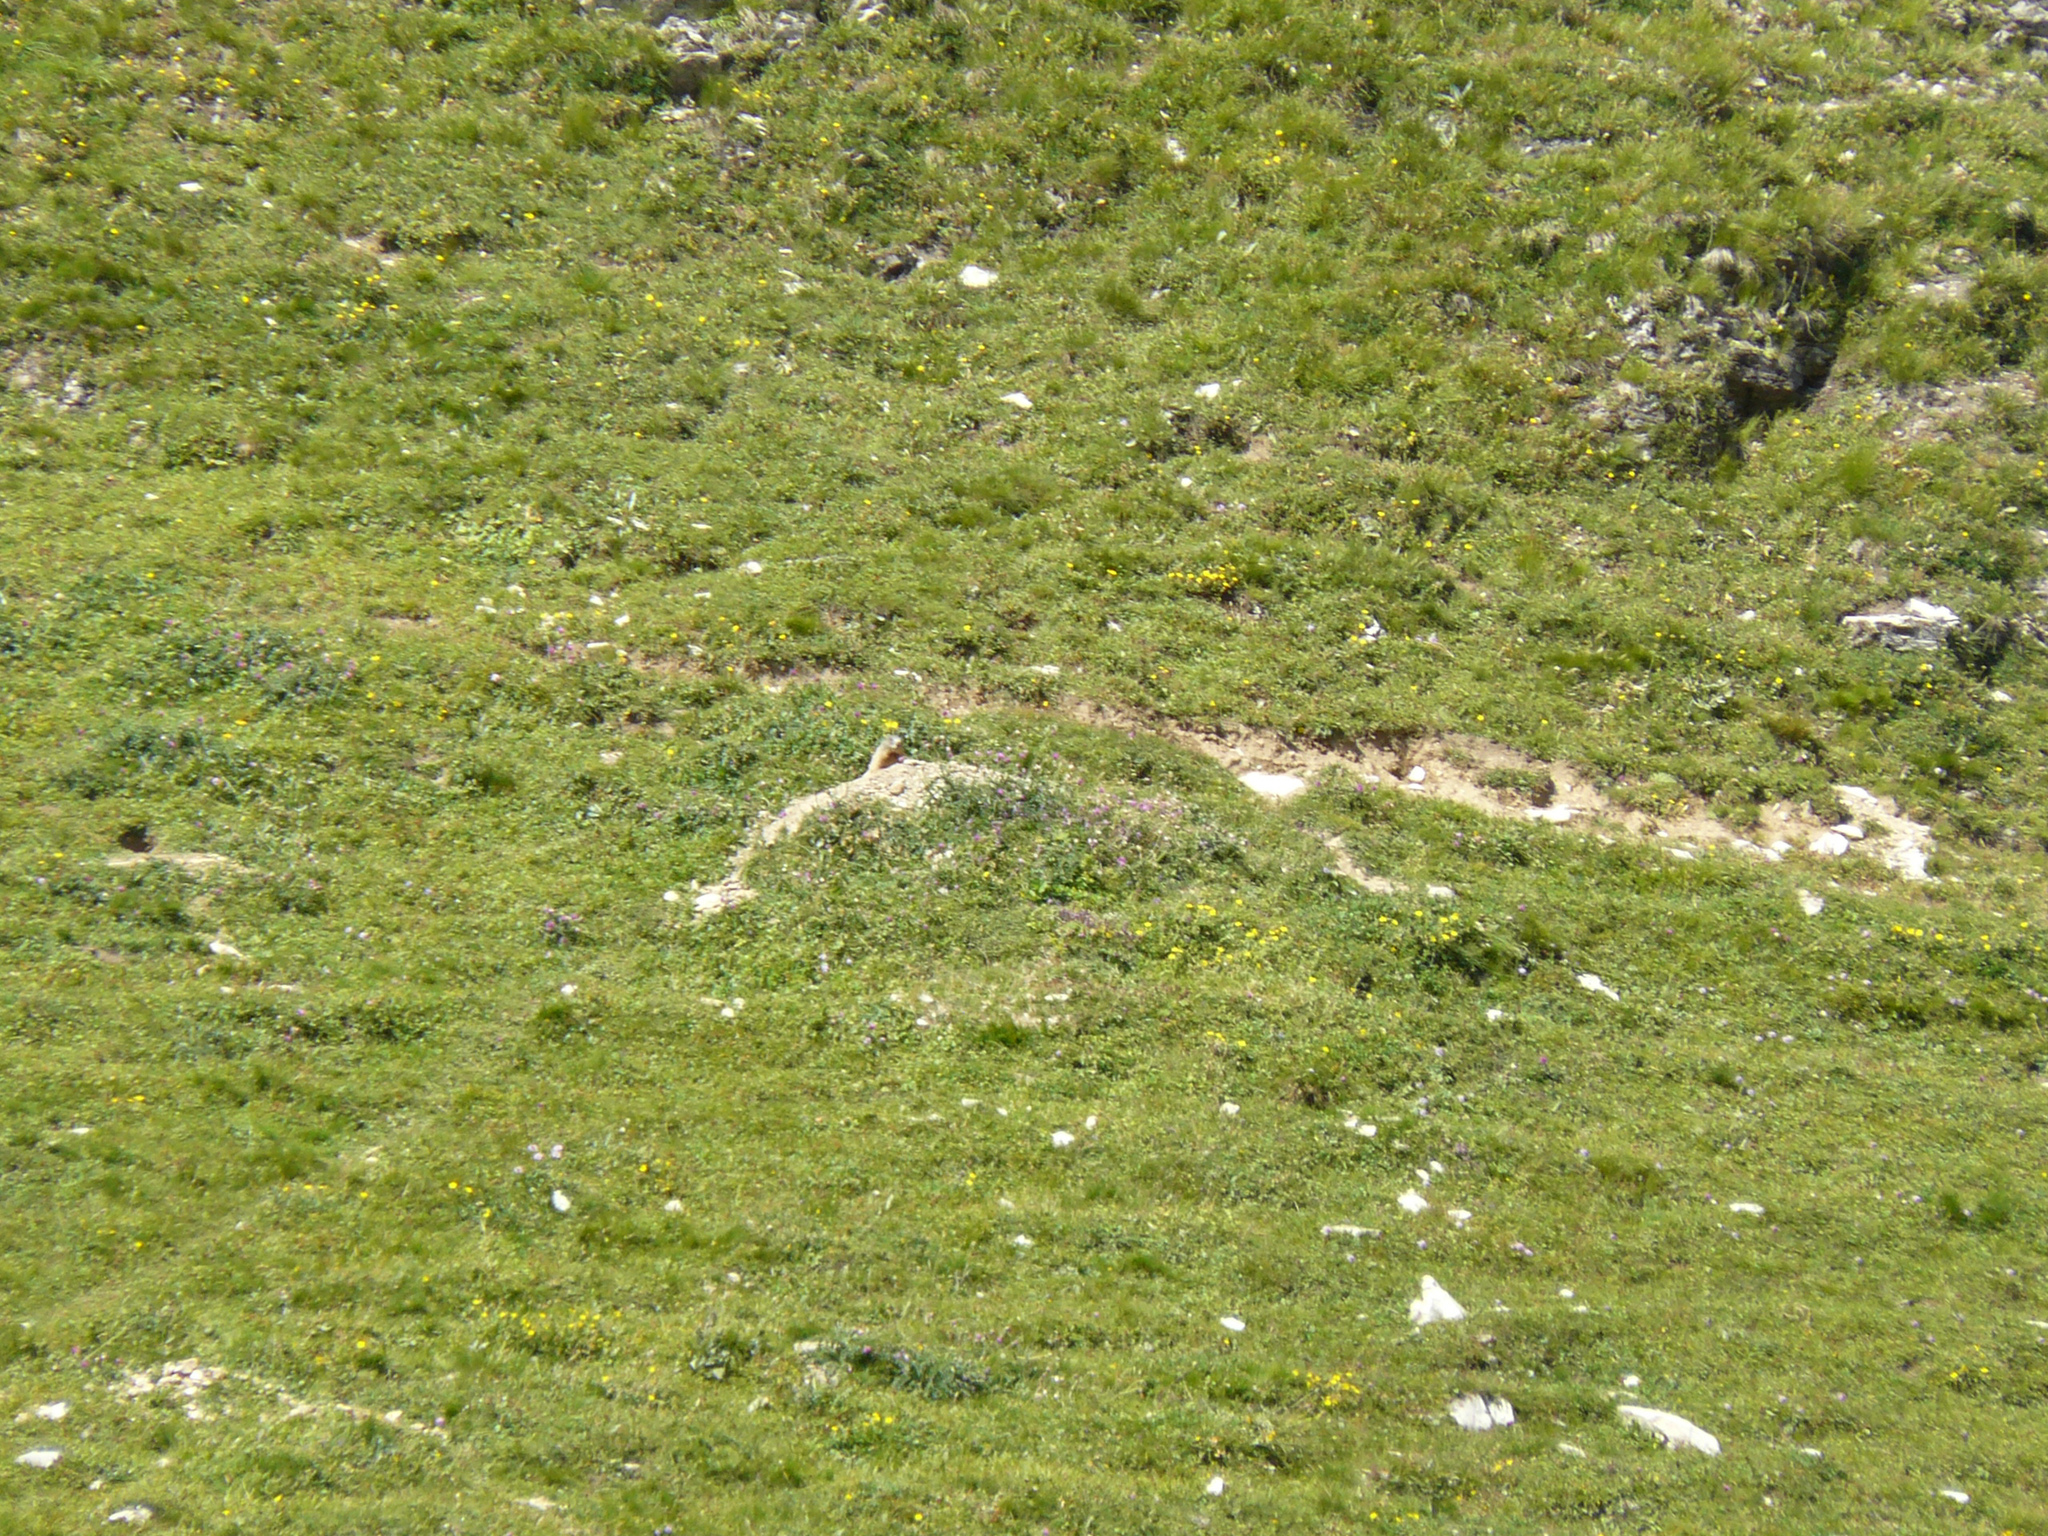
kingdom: Animalia
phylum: Chordata
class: Mammalia
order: Rodentia
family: Sciuridae
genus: Marmota
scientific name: Marmota marmota
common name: Alpine marmot
